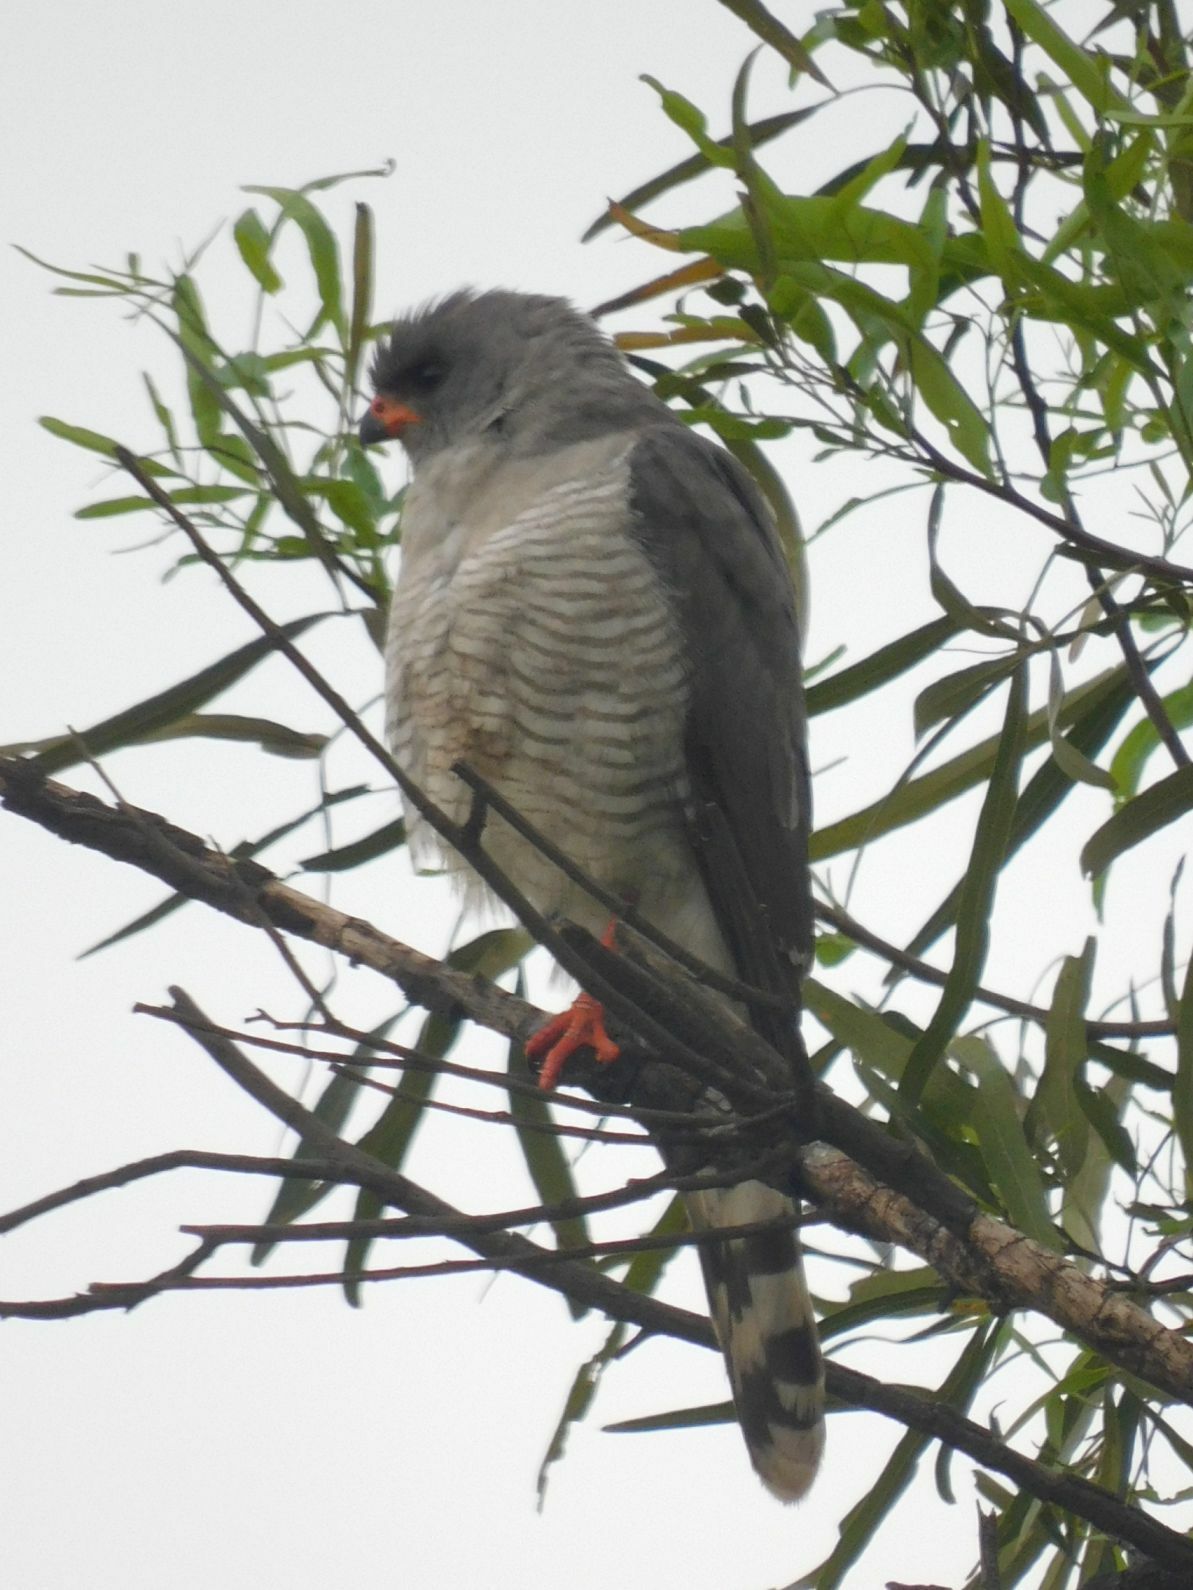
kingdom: Animalia
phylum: Chordata
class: Aves
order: Accipitriformes
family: Accipitridae
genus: Micronisus
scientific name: Micronisus gabar
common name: Gabar goshawk
